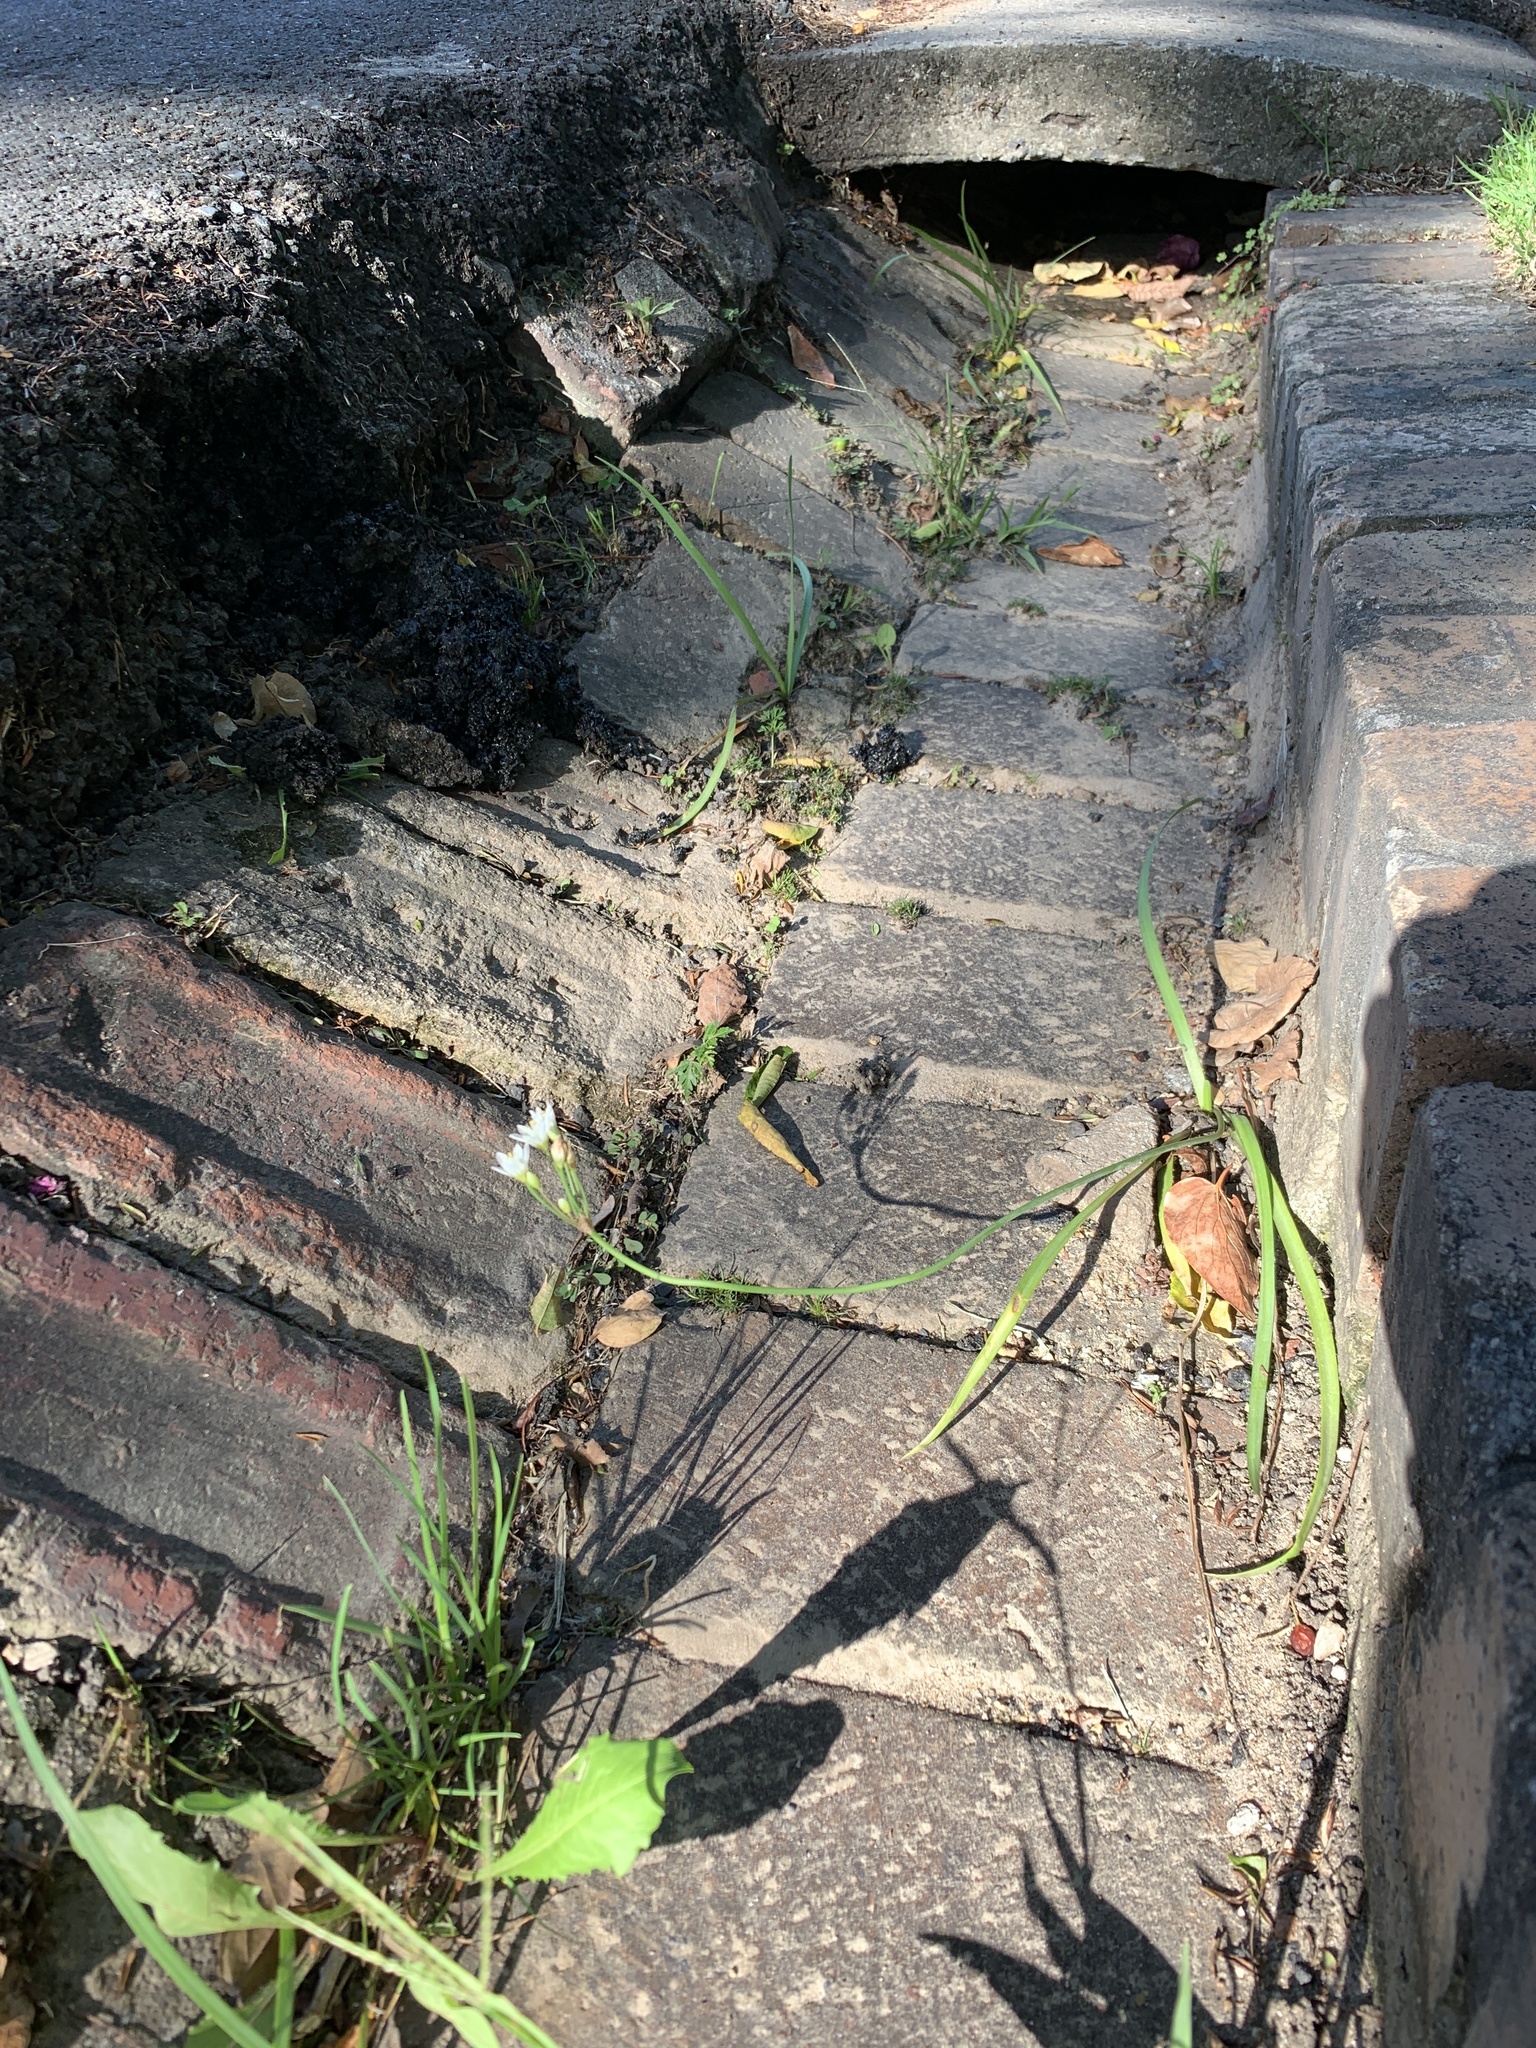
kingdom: Plantae
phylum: Tracheophyta
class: Liliopsida
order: Asparagales
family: Amaryllidaceae
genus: Nothoscordum
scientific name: Nothoscordum gracile
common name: Slender false garlic
